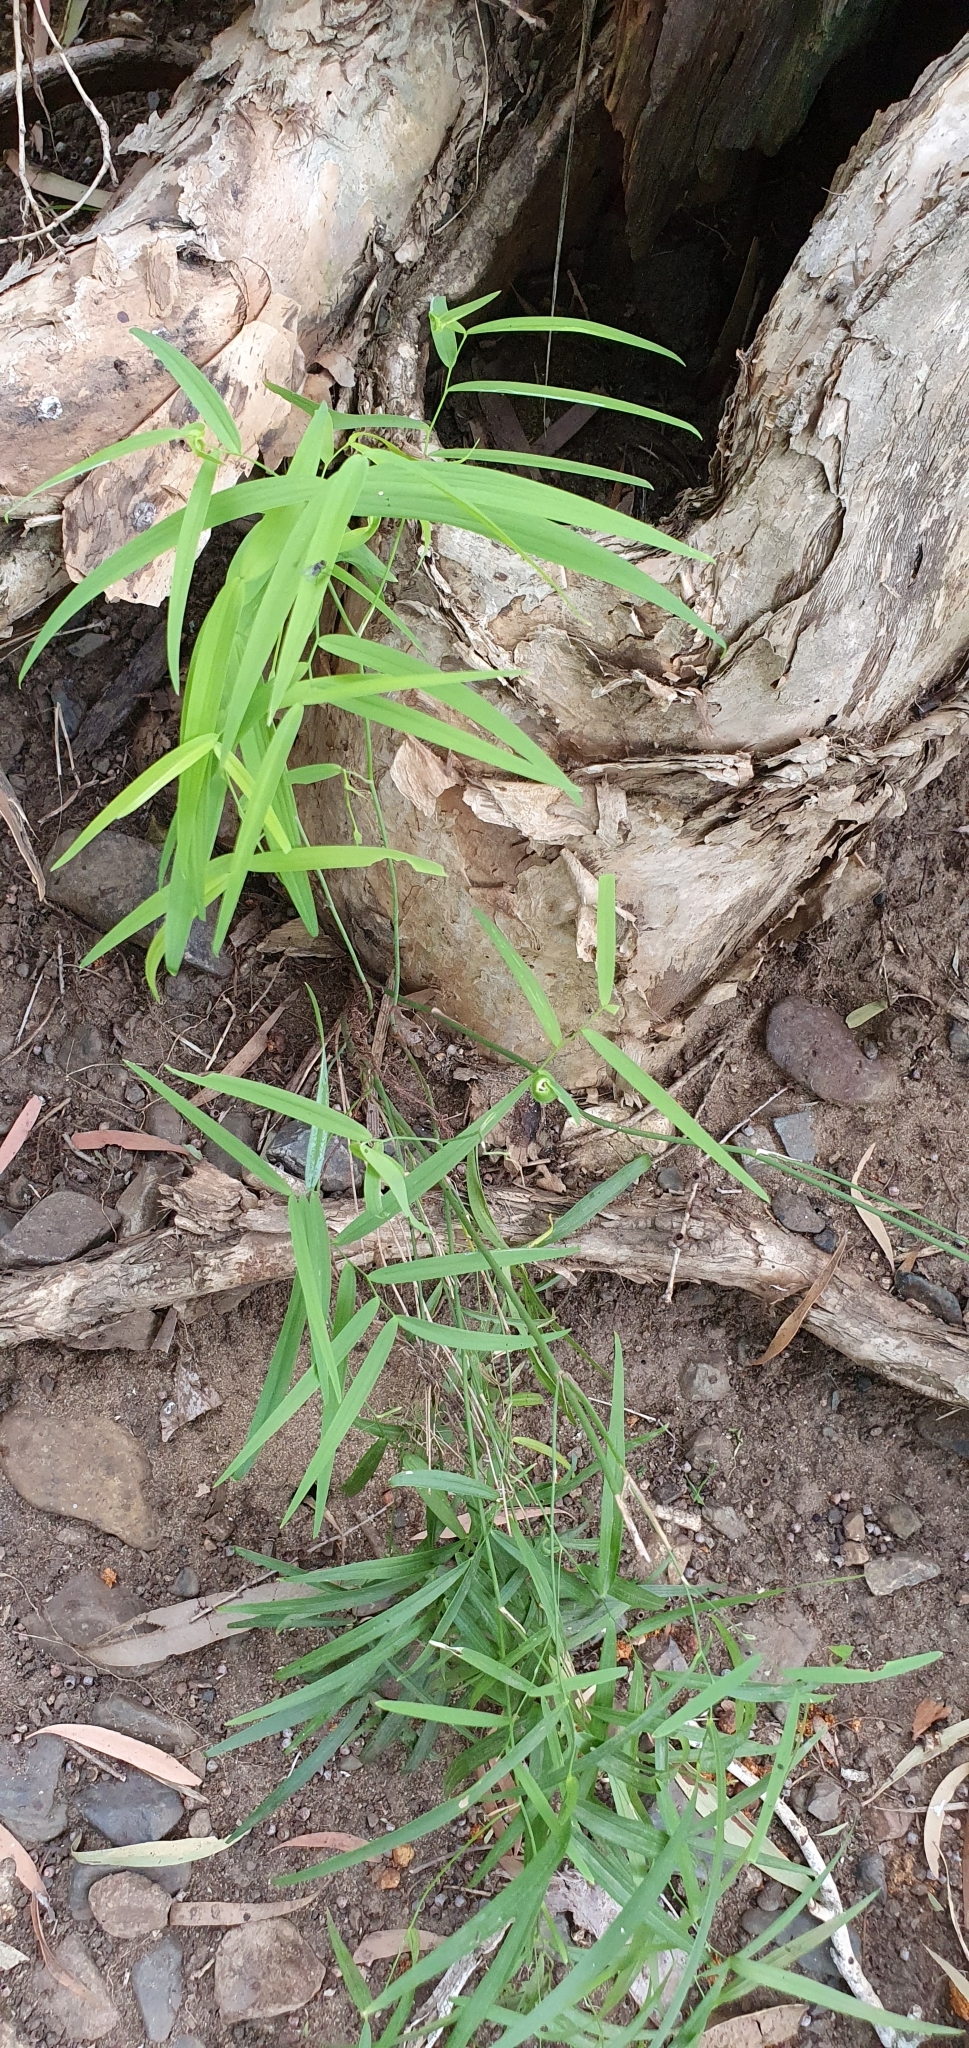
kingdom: Plantae
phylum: Tracheophyta
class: Liliopsida
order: Asparagales
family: Asparagaceae
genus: Eustrephus
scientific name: Eustrephus latifolius
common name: Orangevine
